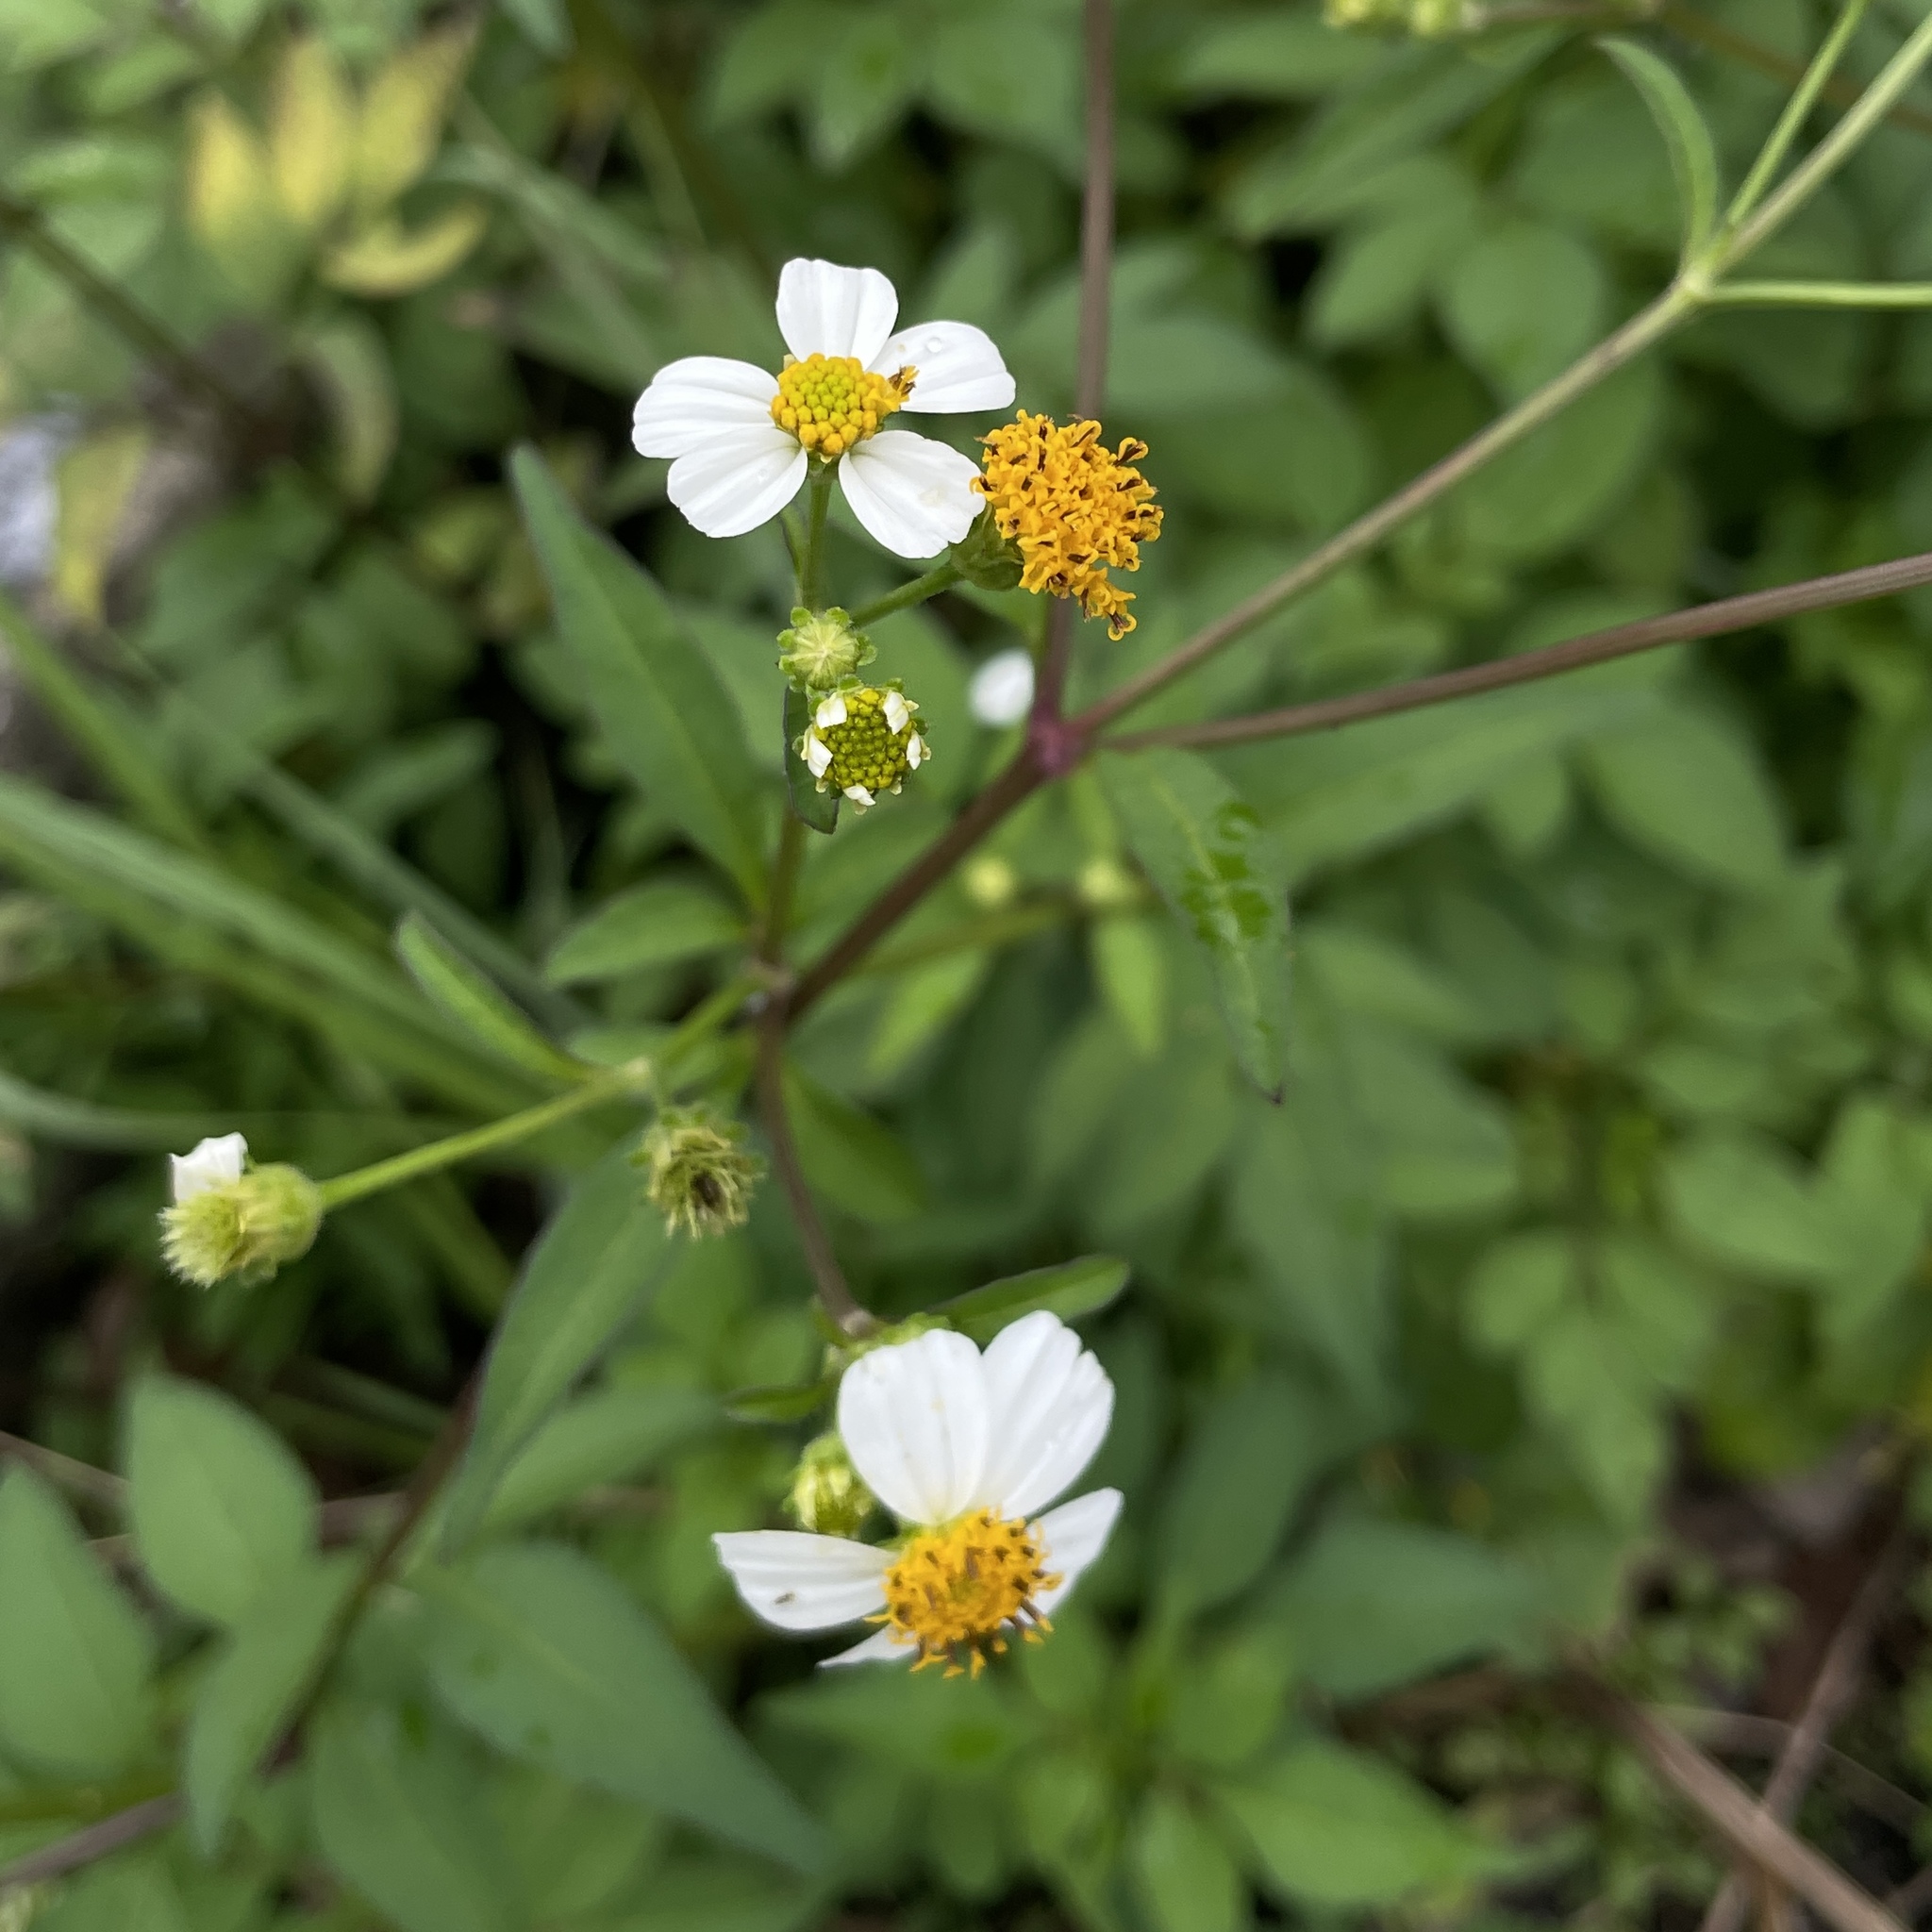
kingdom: Plantae
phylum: Tracheophyta
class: Magnoliopsida
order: Asterales
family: Asteraceae
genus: Bidens
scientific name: Bidens alba
